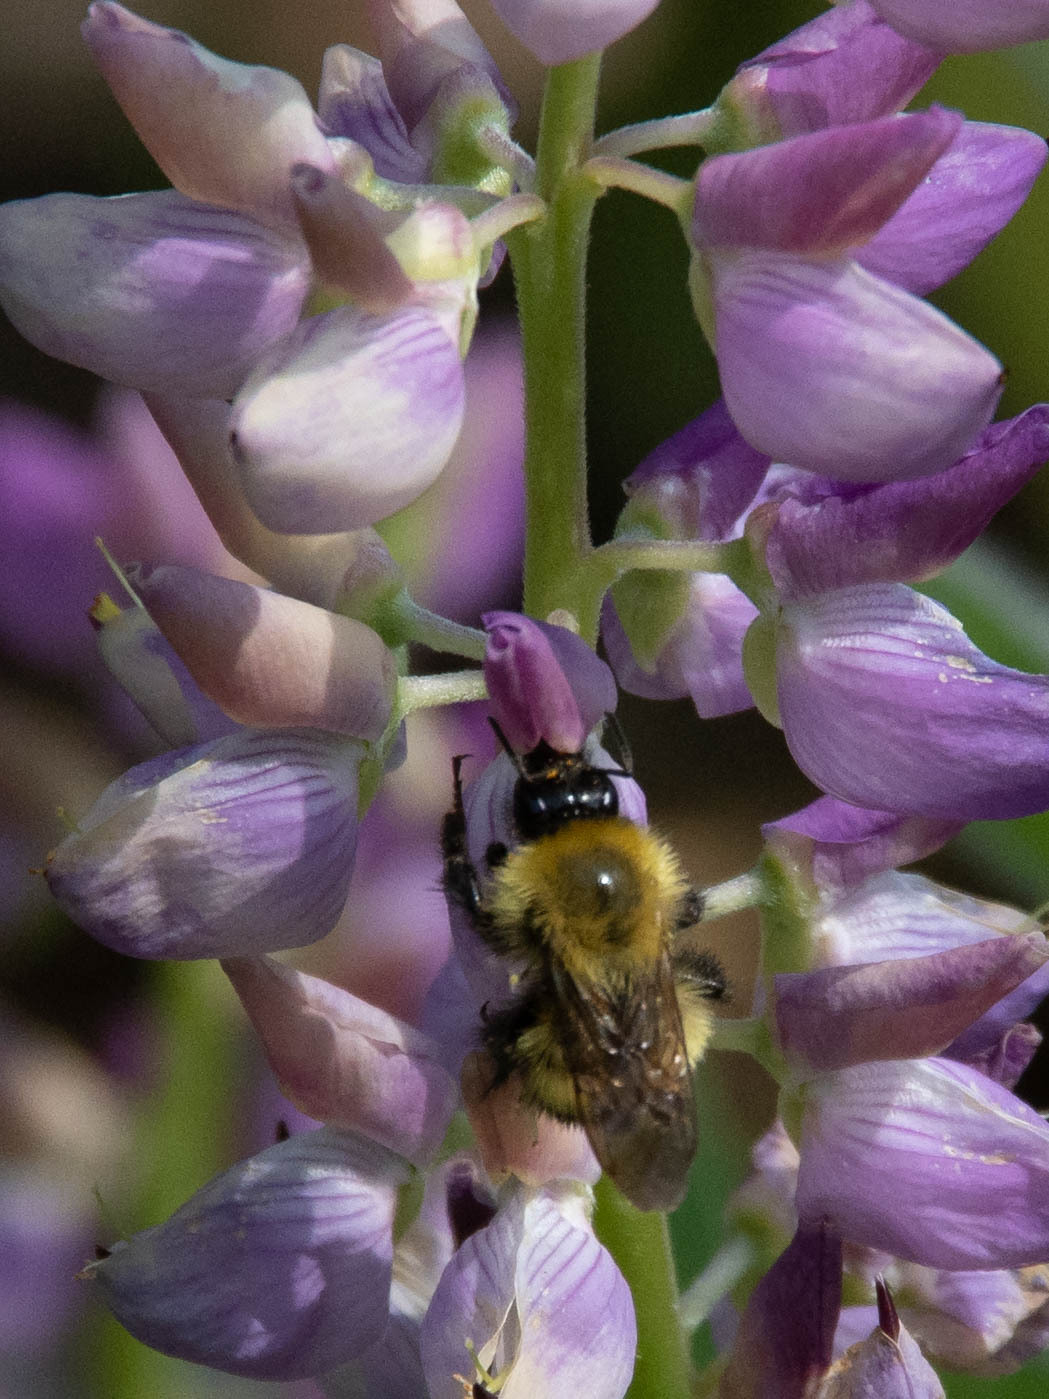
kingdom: Animalia
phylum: Arthropoda
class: Insecta
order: Hymenoptera
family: Apidae
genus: Bombus
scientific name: Bombus perplexus
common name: Confusing bumble bee
